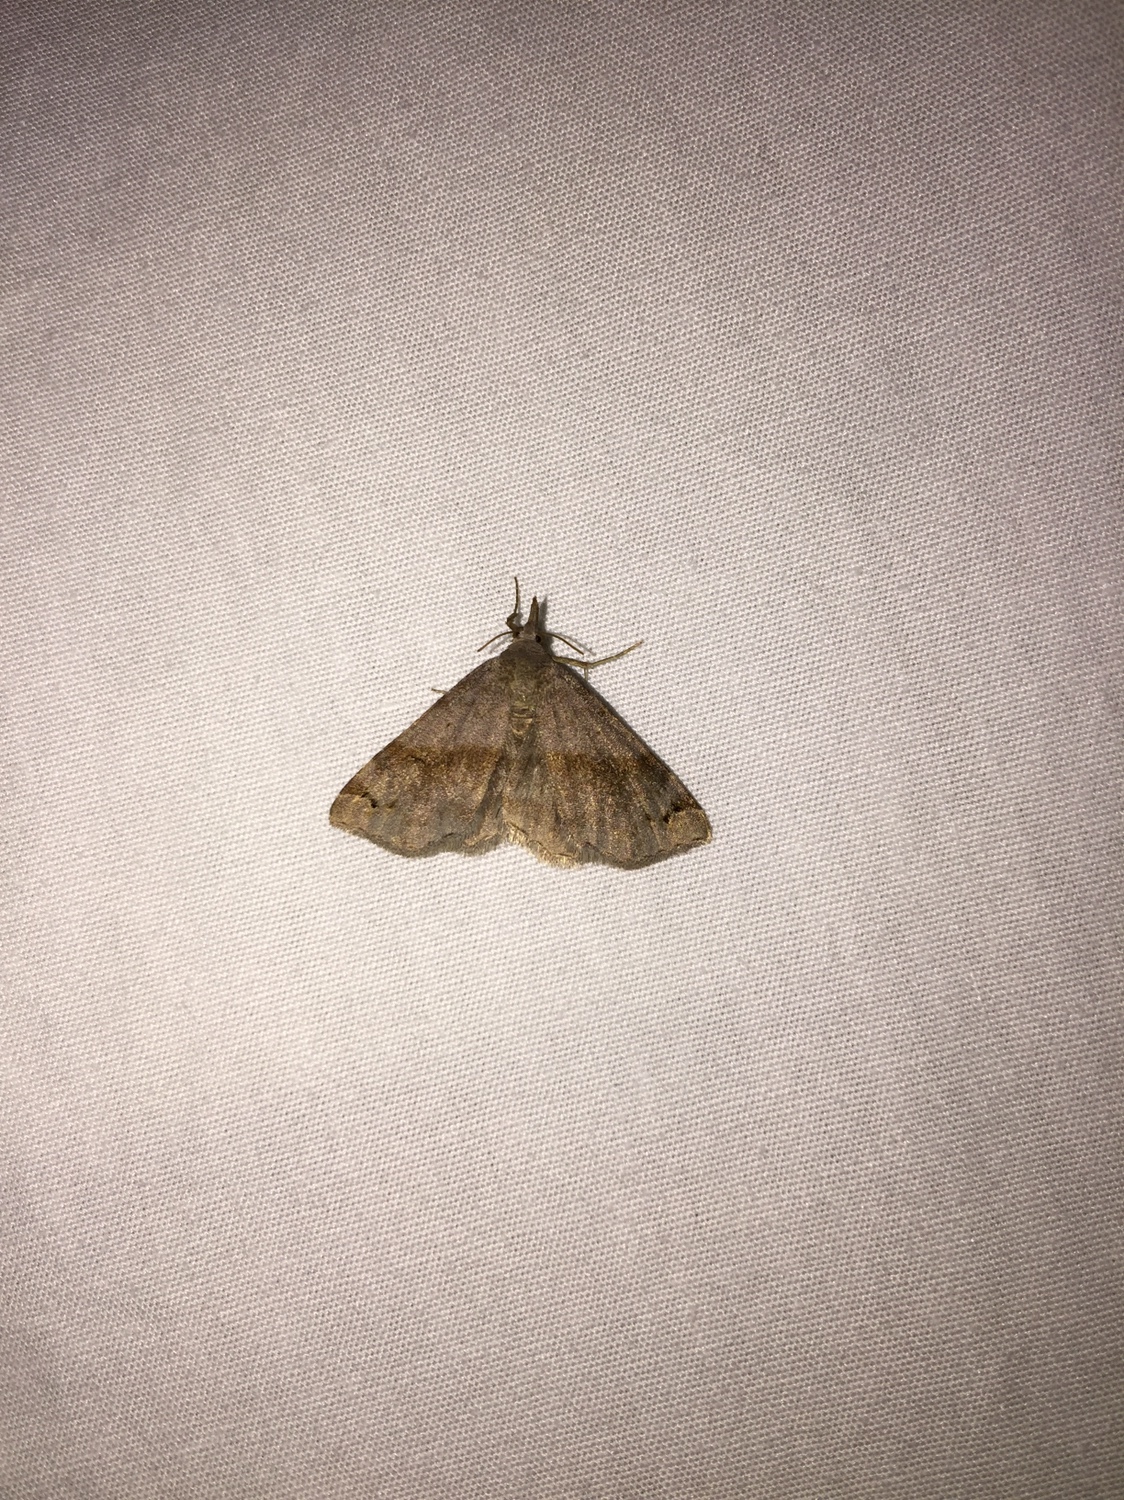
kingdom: Animalia
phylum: Arthropoda
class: Insecta
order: Lepidoptera
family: Erebidae
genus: Spargaloma
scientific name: Spargaloma sexpunctata
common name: Six-spotted gray
